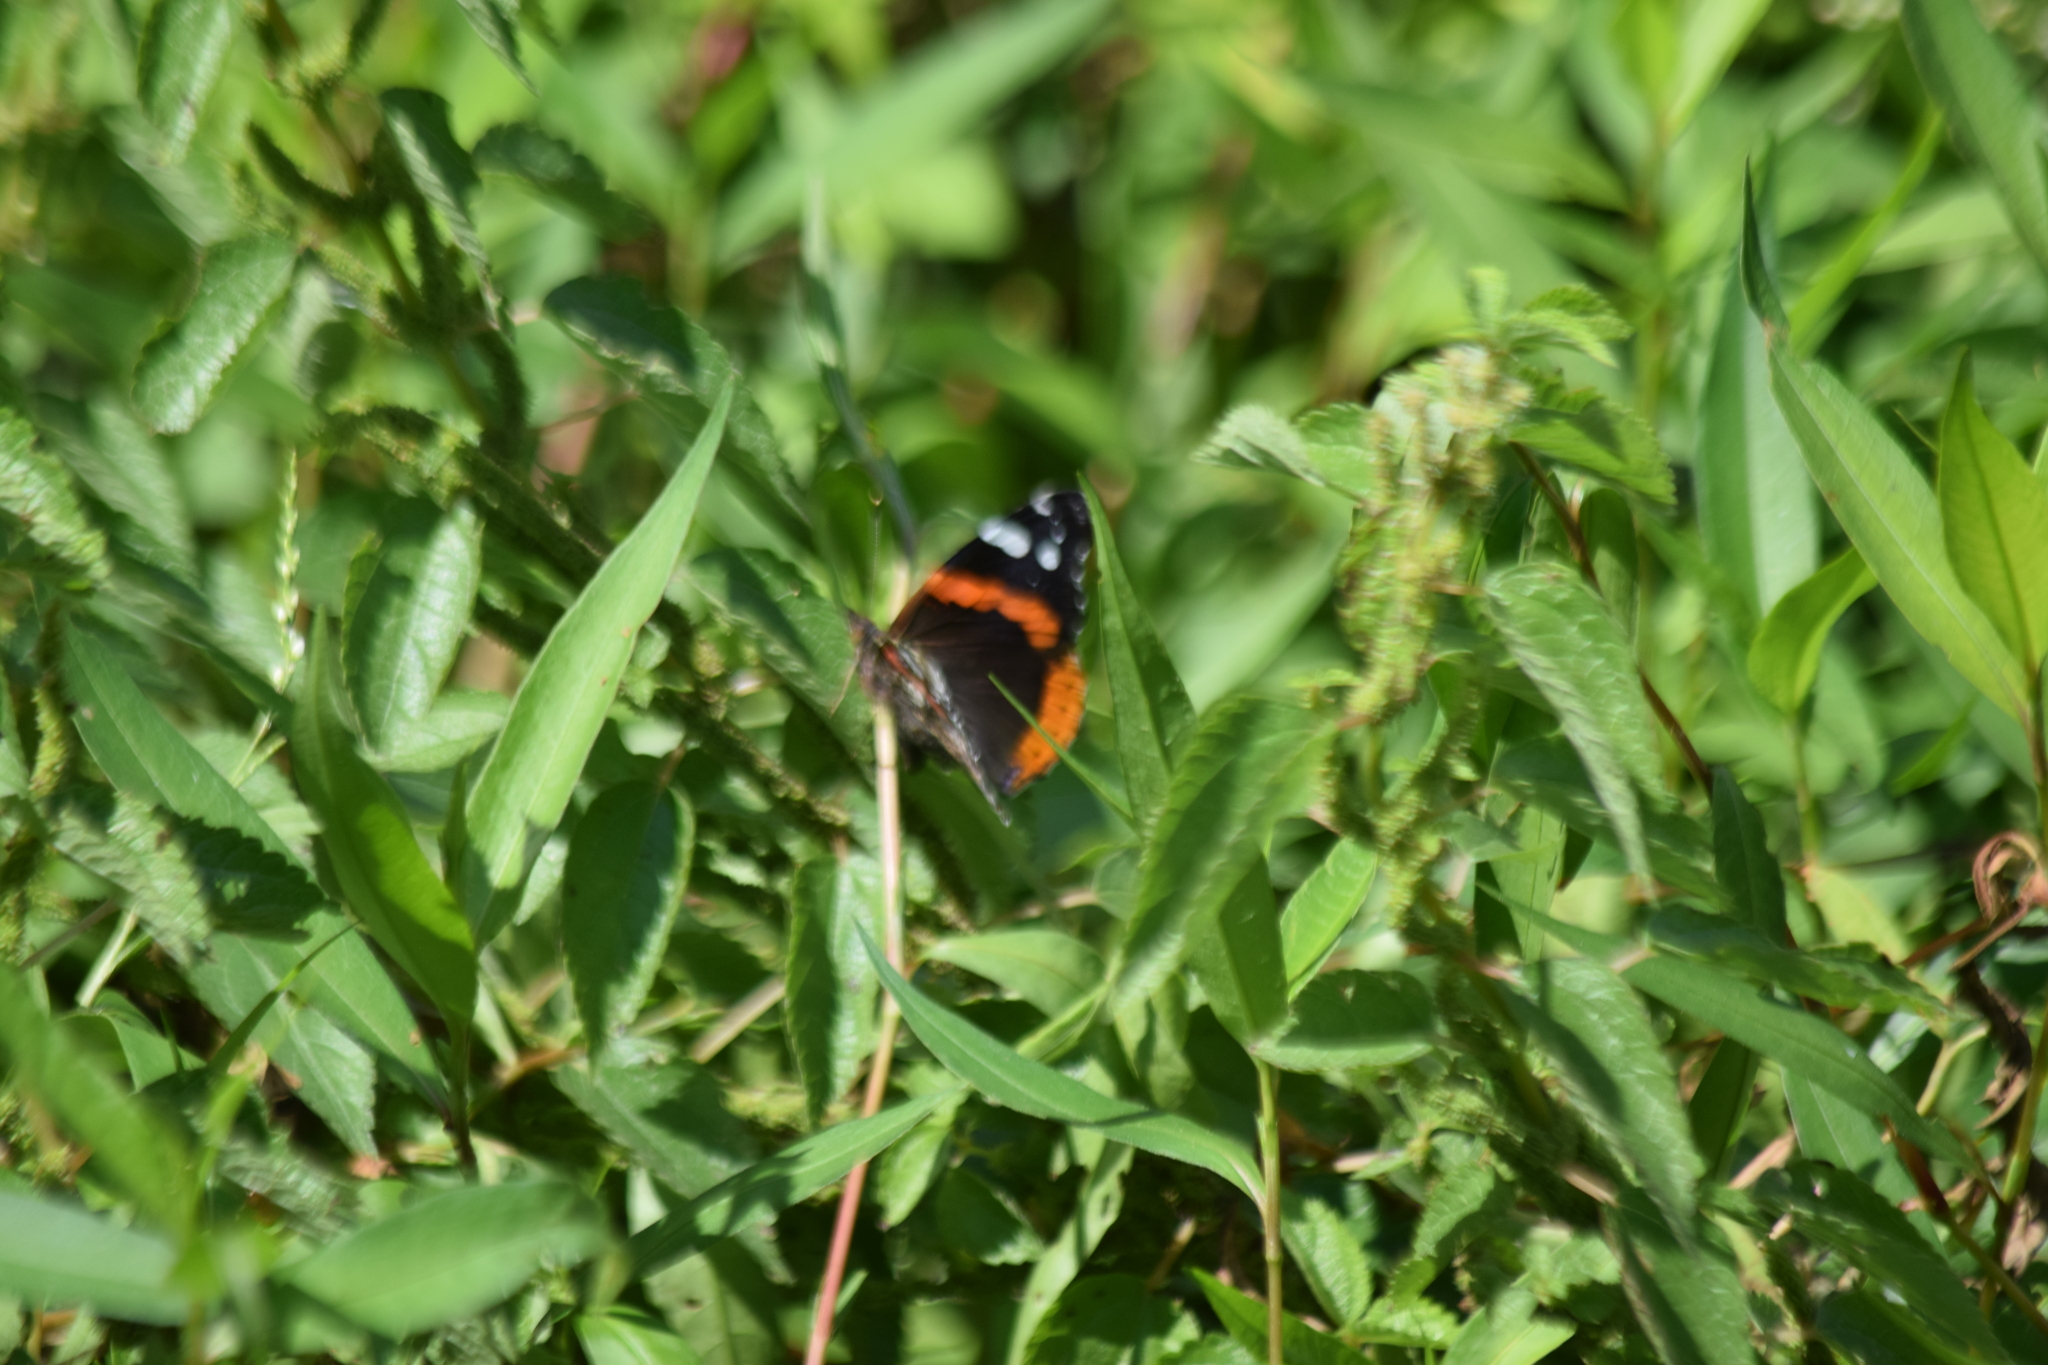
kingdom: Animalia
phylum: Arthropoda
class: Insecta
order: Lepidoptera
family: Nymphalidae
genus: Vanessa
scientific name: Vanessa atalanta
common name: Red admiral
